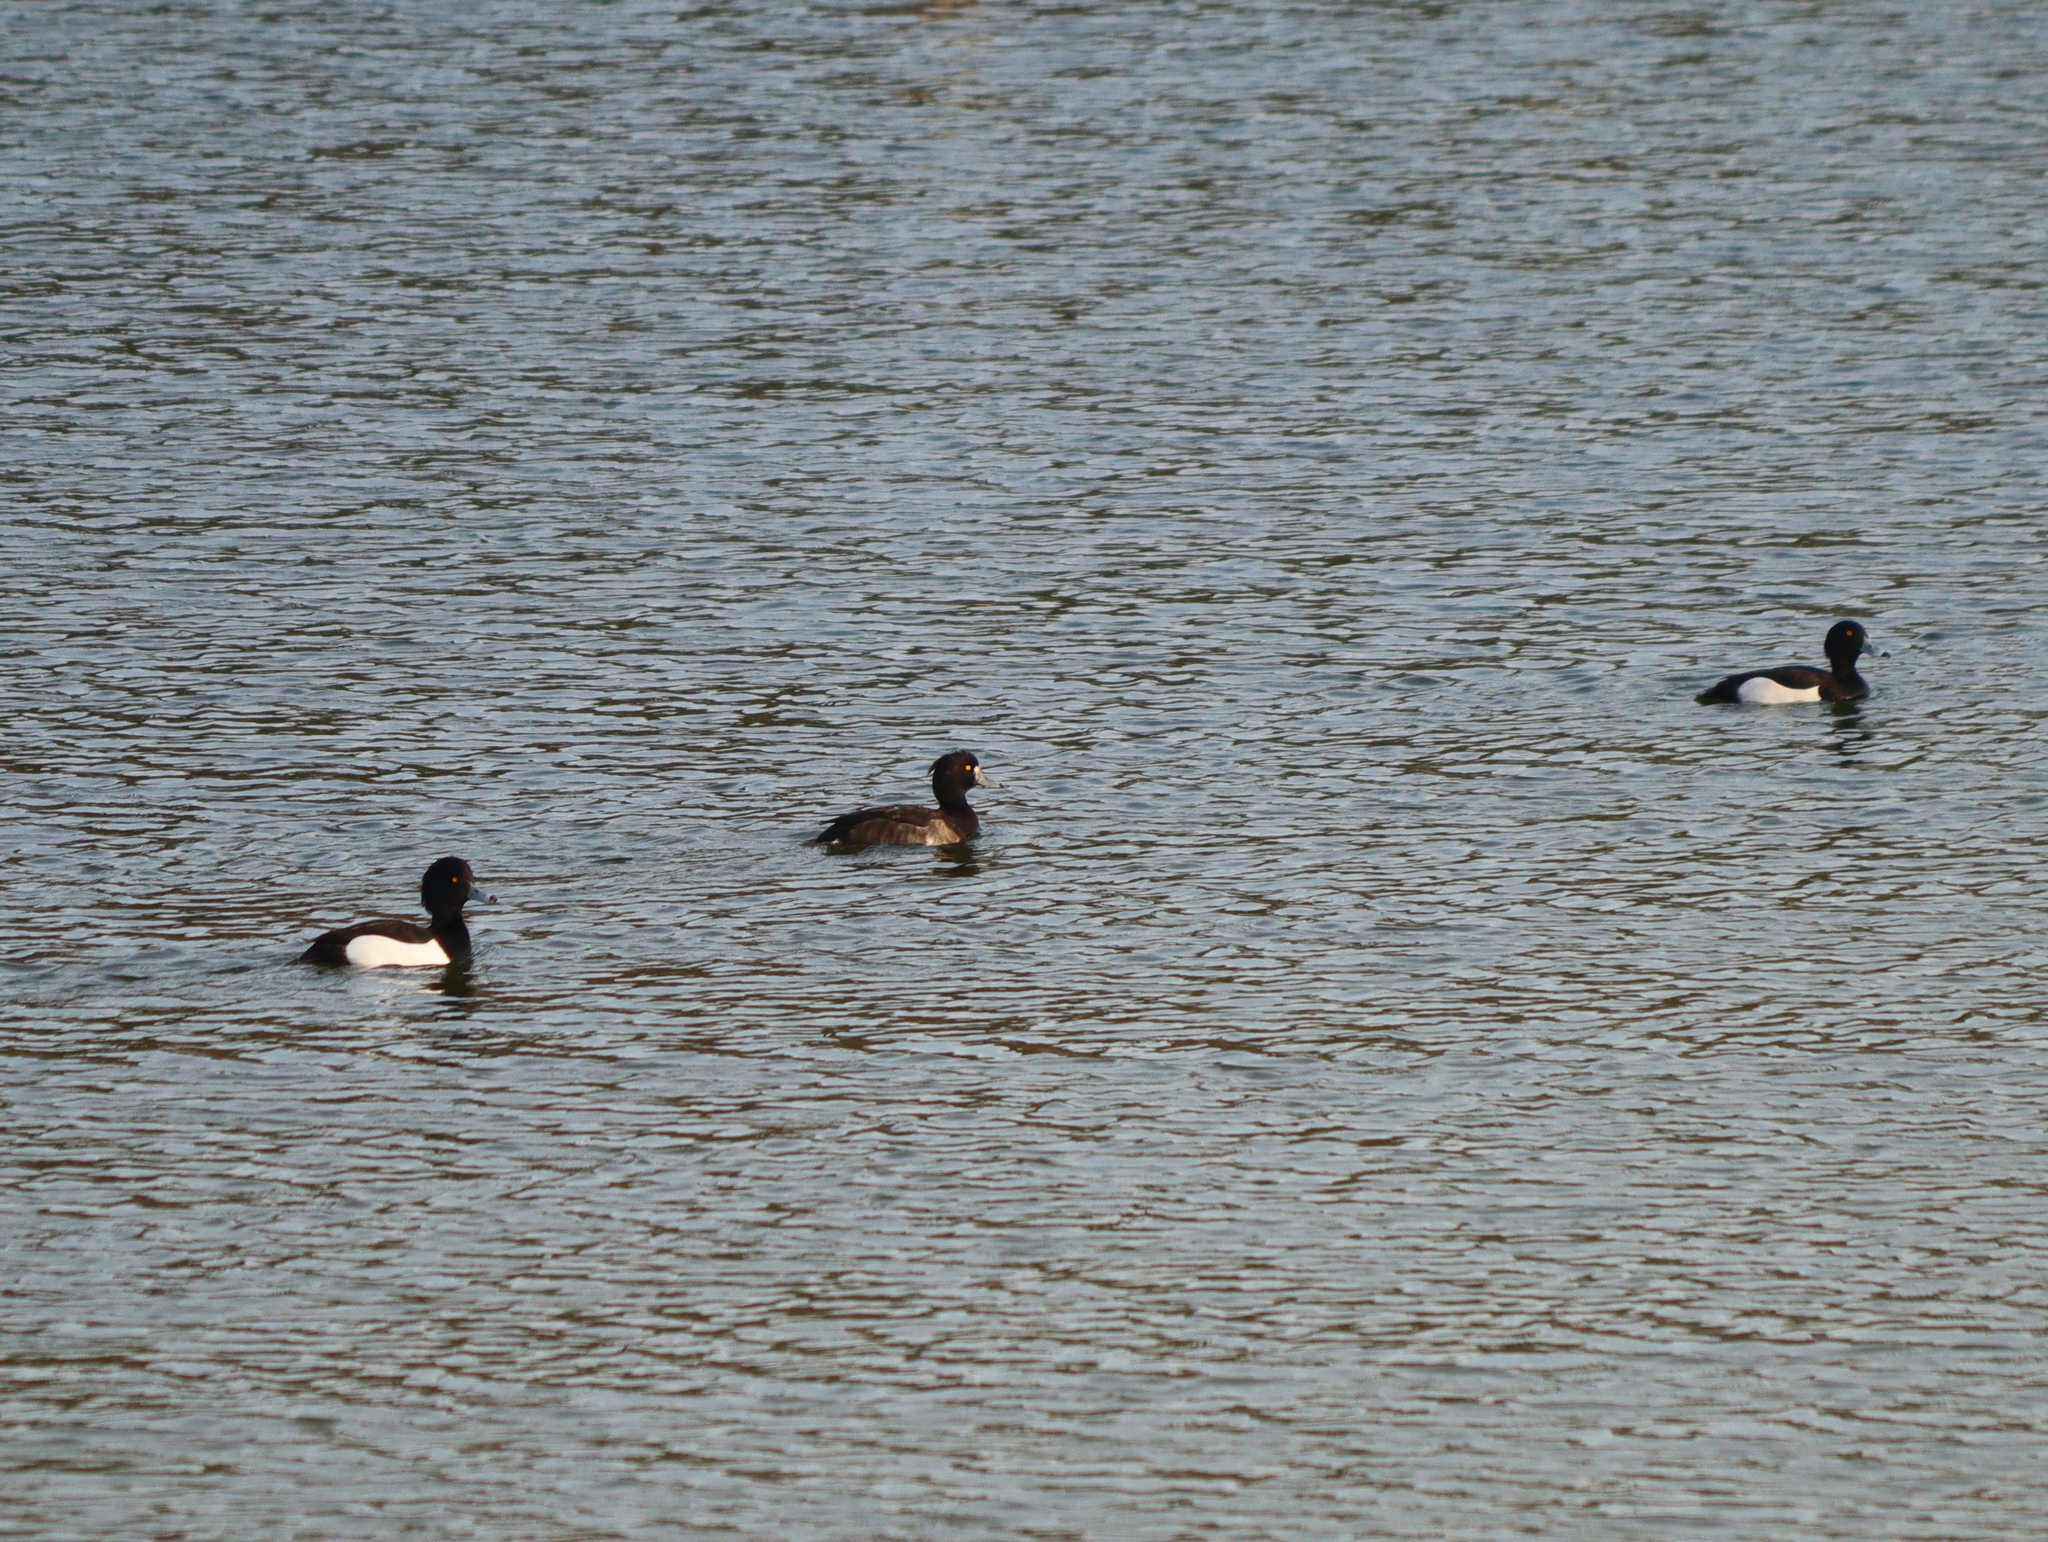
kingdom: Animalia
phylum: Chordata
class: Aves
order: Anseriformes
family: Anatidae
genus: Aythya
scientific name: Aythya fuligula
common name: Tufted duck
